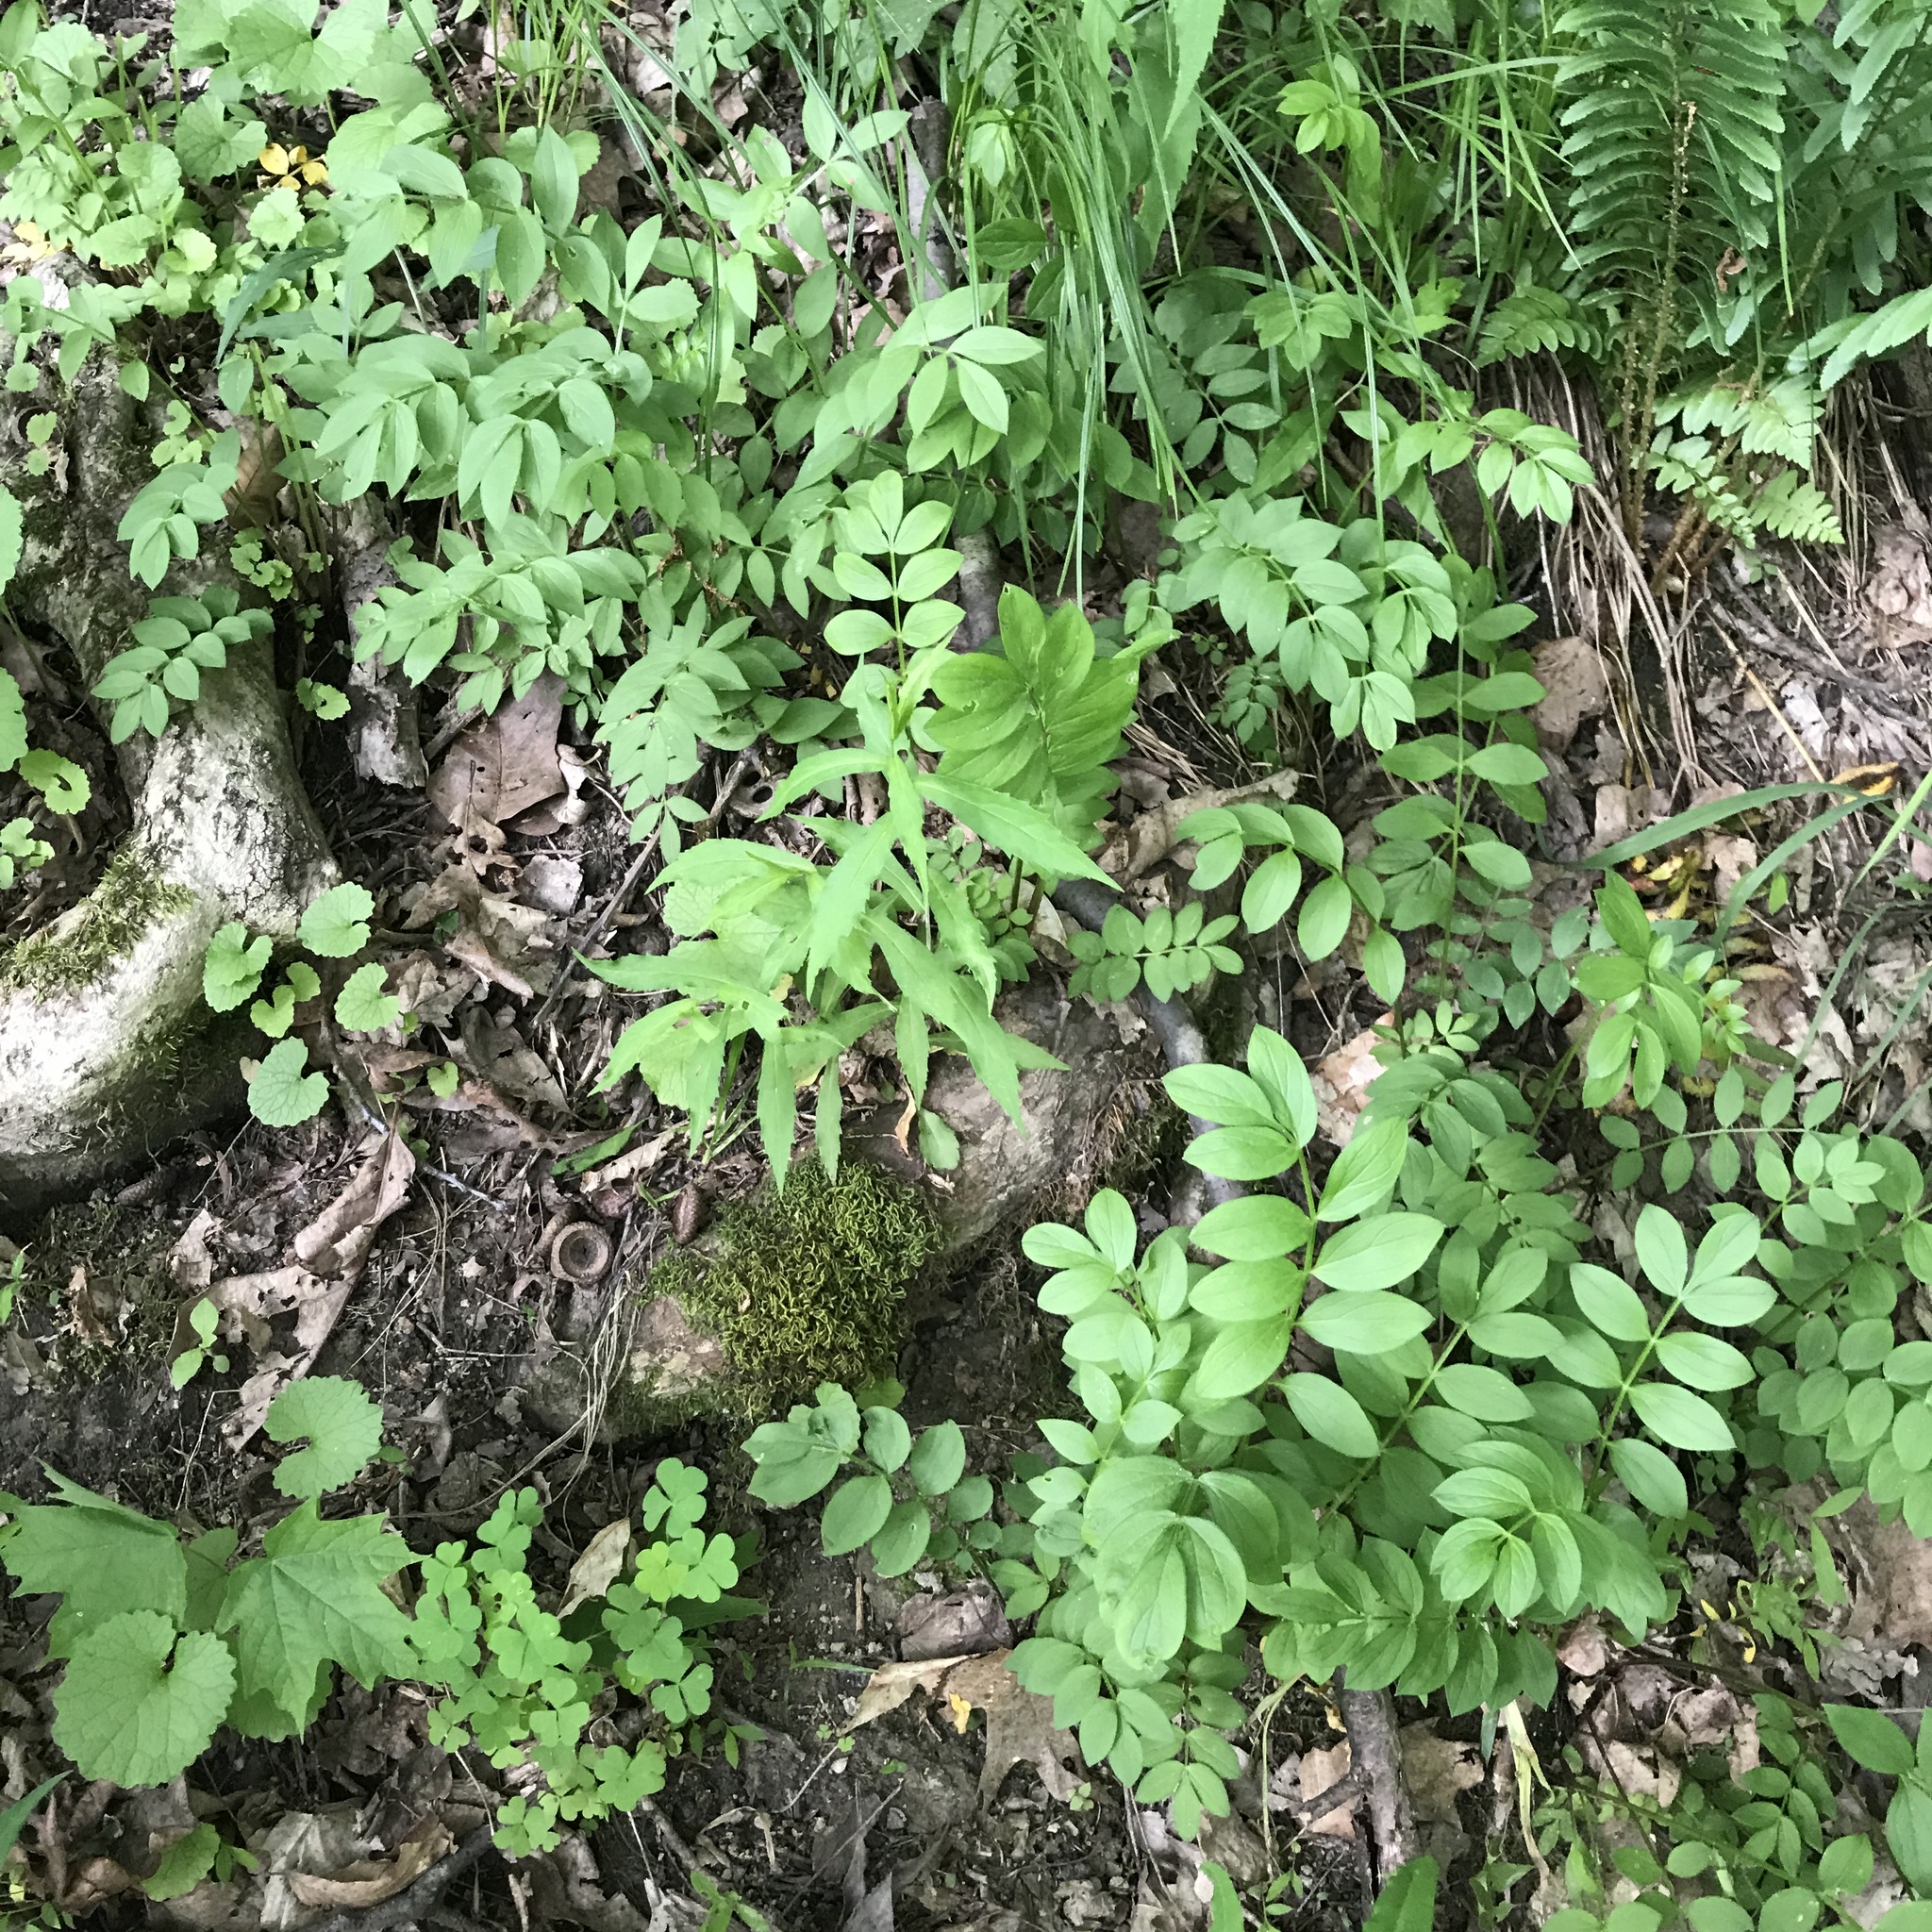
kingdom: Plantae
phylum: Tracheophyta
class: Magnoliopsida
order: Ericales
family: Polemoniaceae
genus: Polemonium
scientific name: Polemonium reptans
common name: Creeping jacob's-ladder
